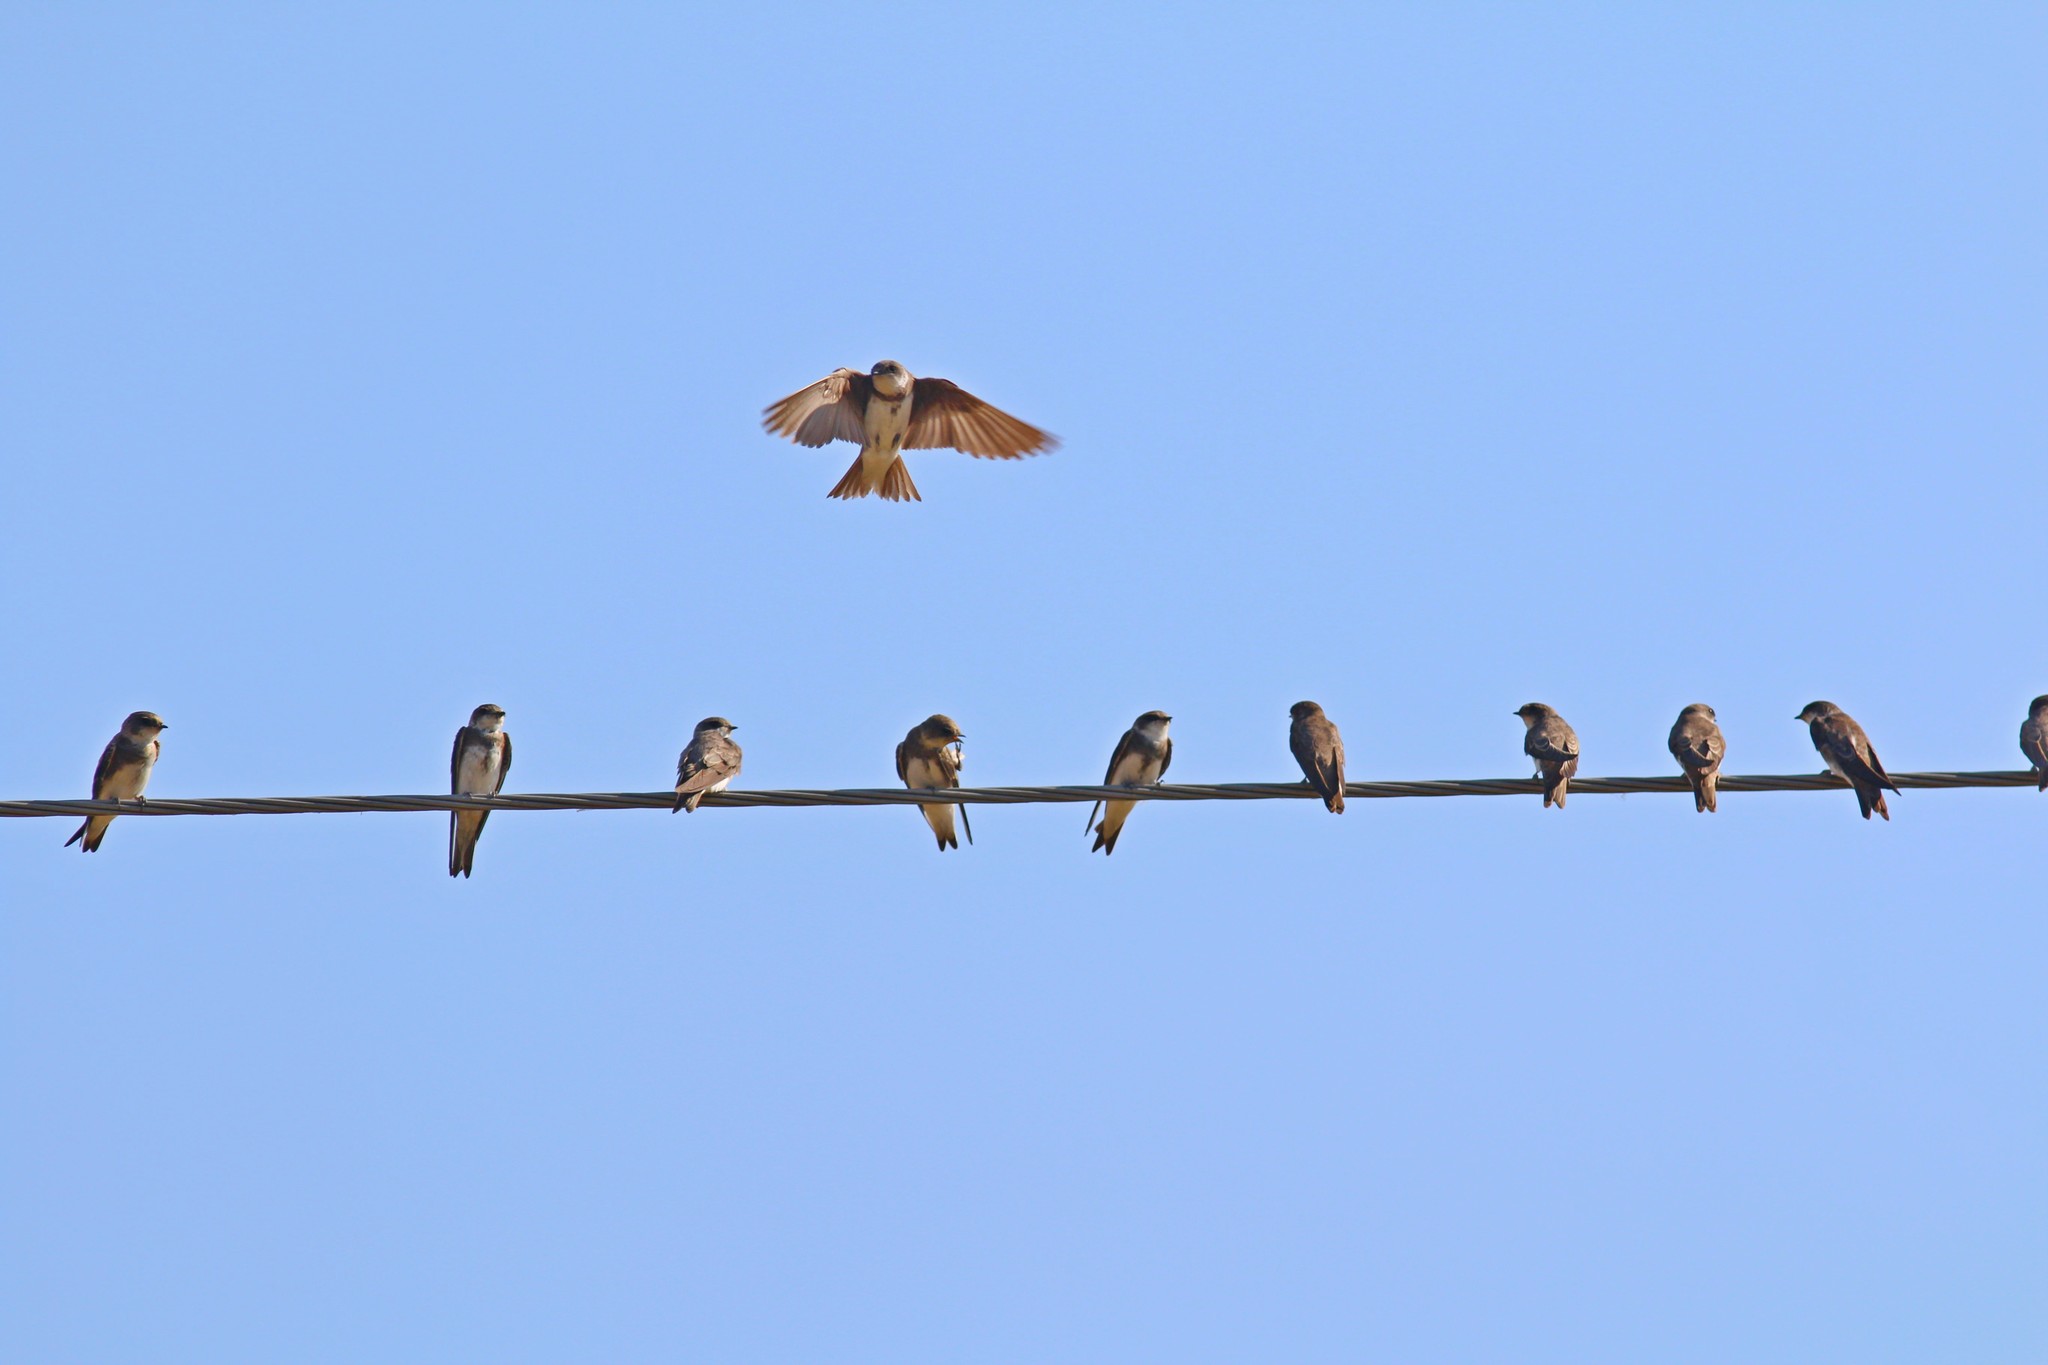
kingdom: Animalia
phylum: Chordata
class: Aves
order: Passeriformes
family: Hirundinidae
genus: Riparia
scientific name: Riparia riparia
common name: Sand martin
